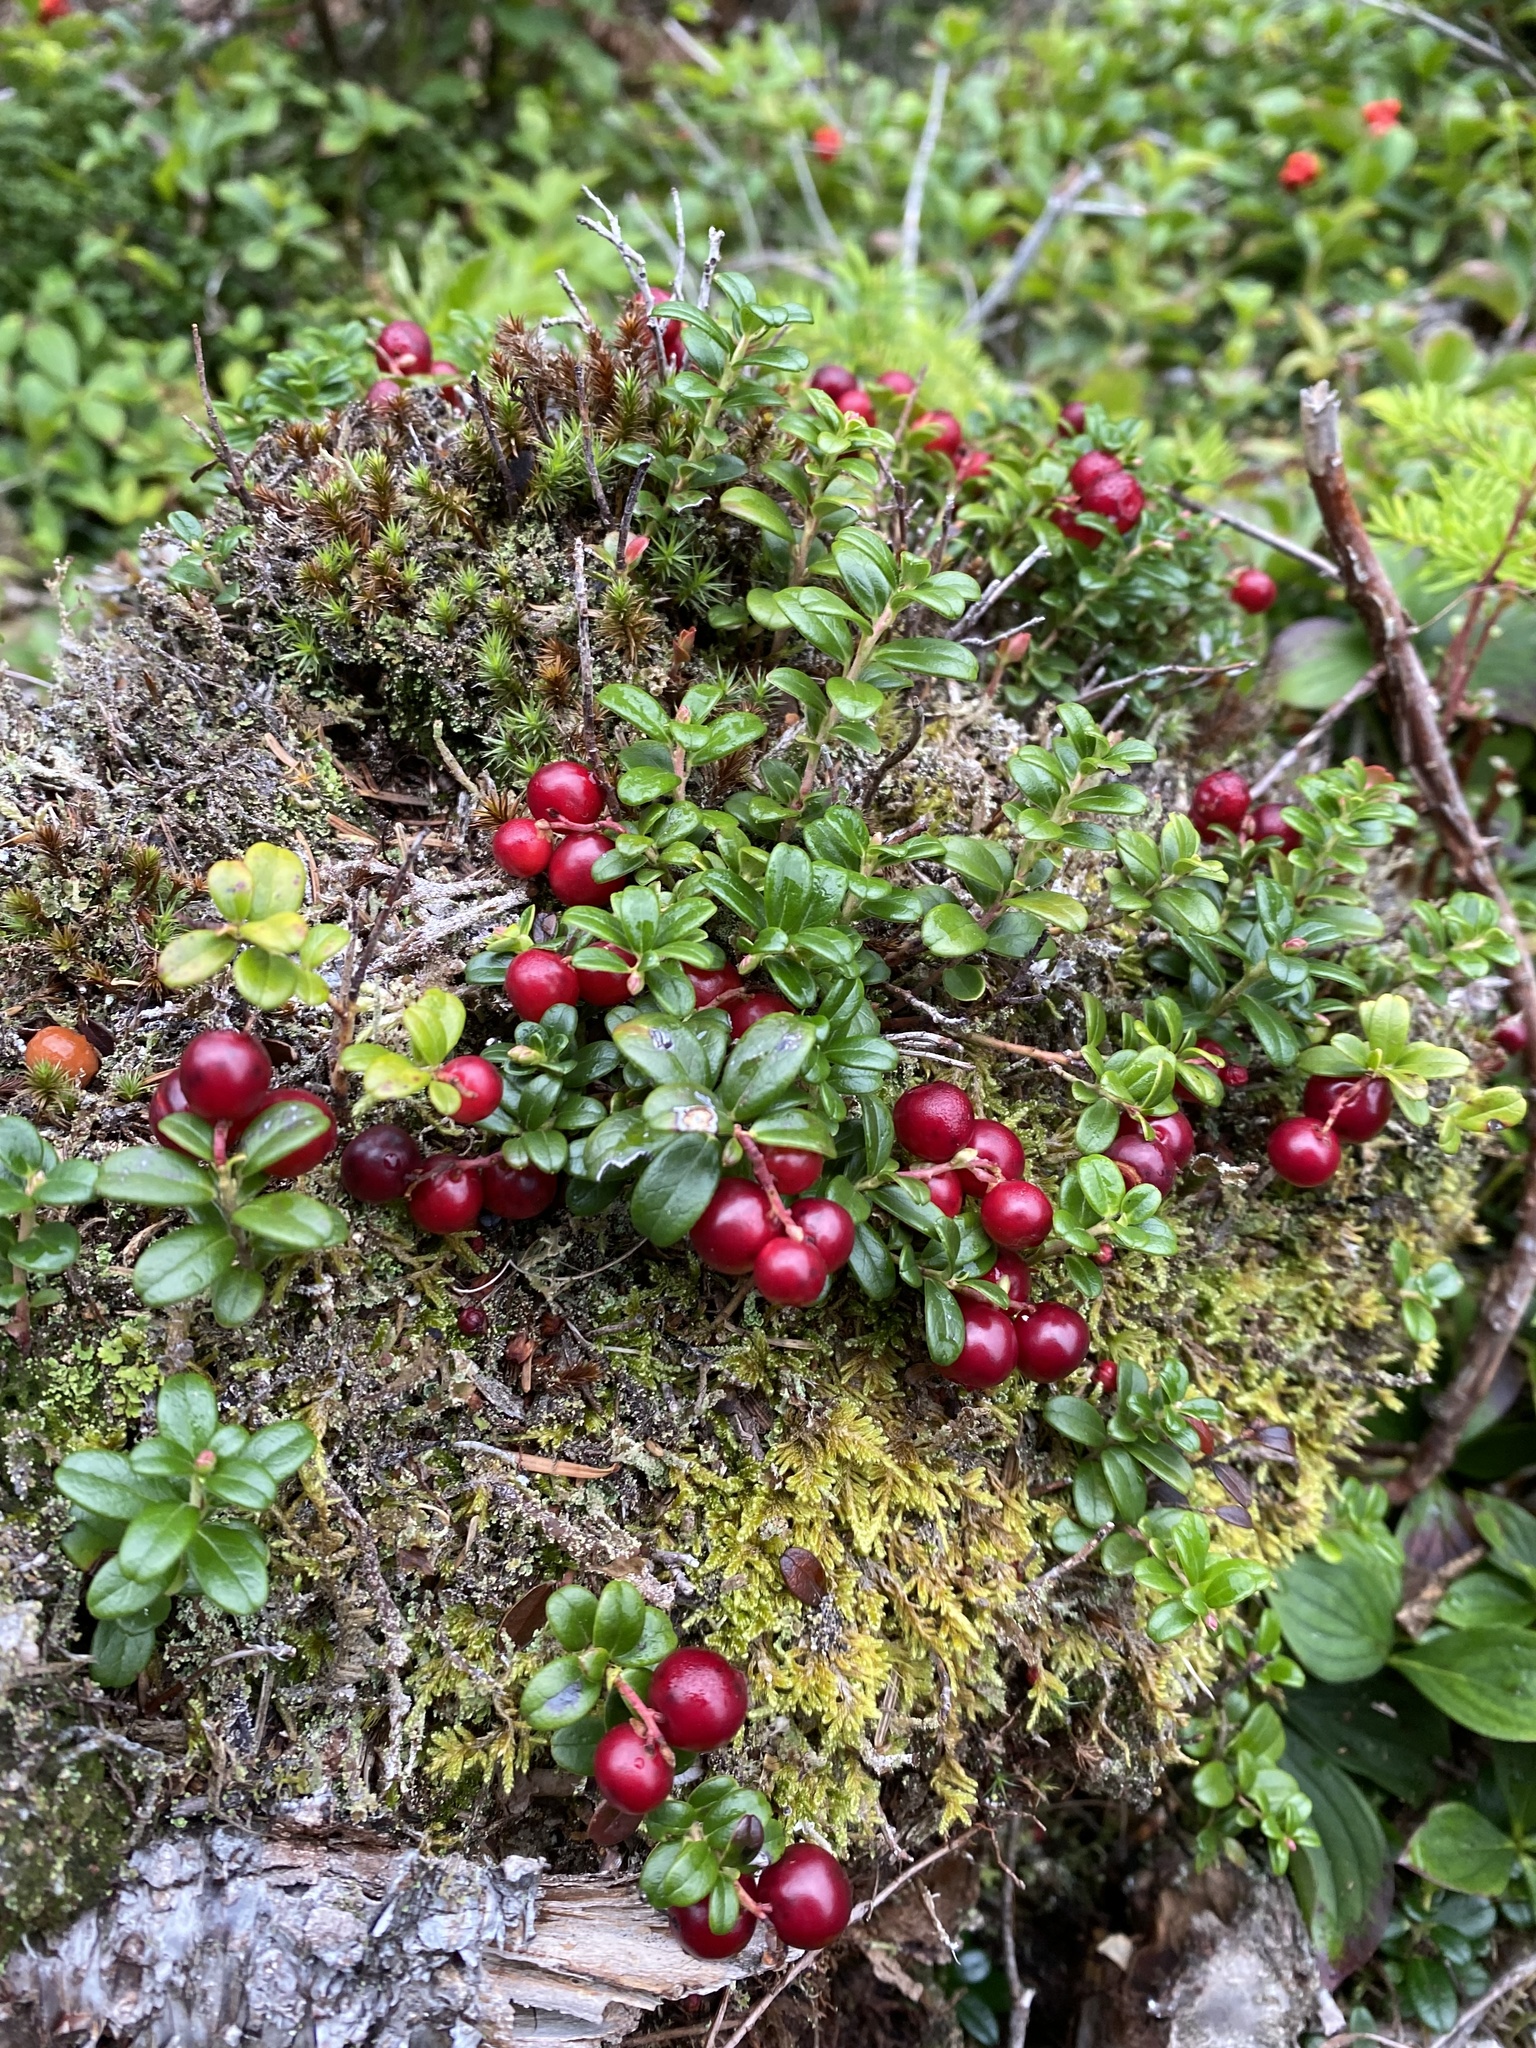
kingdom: Plantae
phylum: Tracheophyta
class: Magnoliopsida
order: Ericales
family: Ericaceae
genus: Vaccinium
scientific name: Vaccinium vitis-idaea
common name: Cowberry
